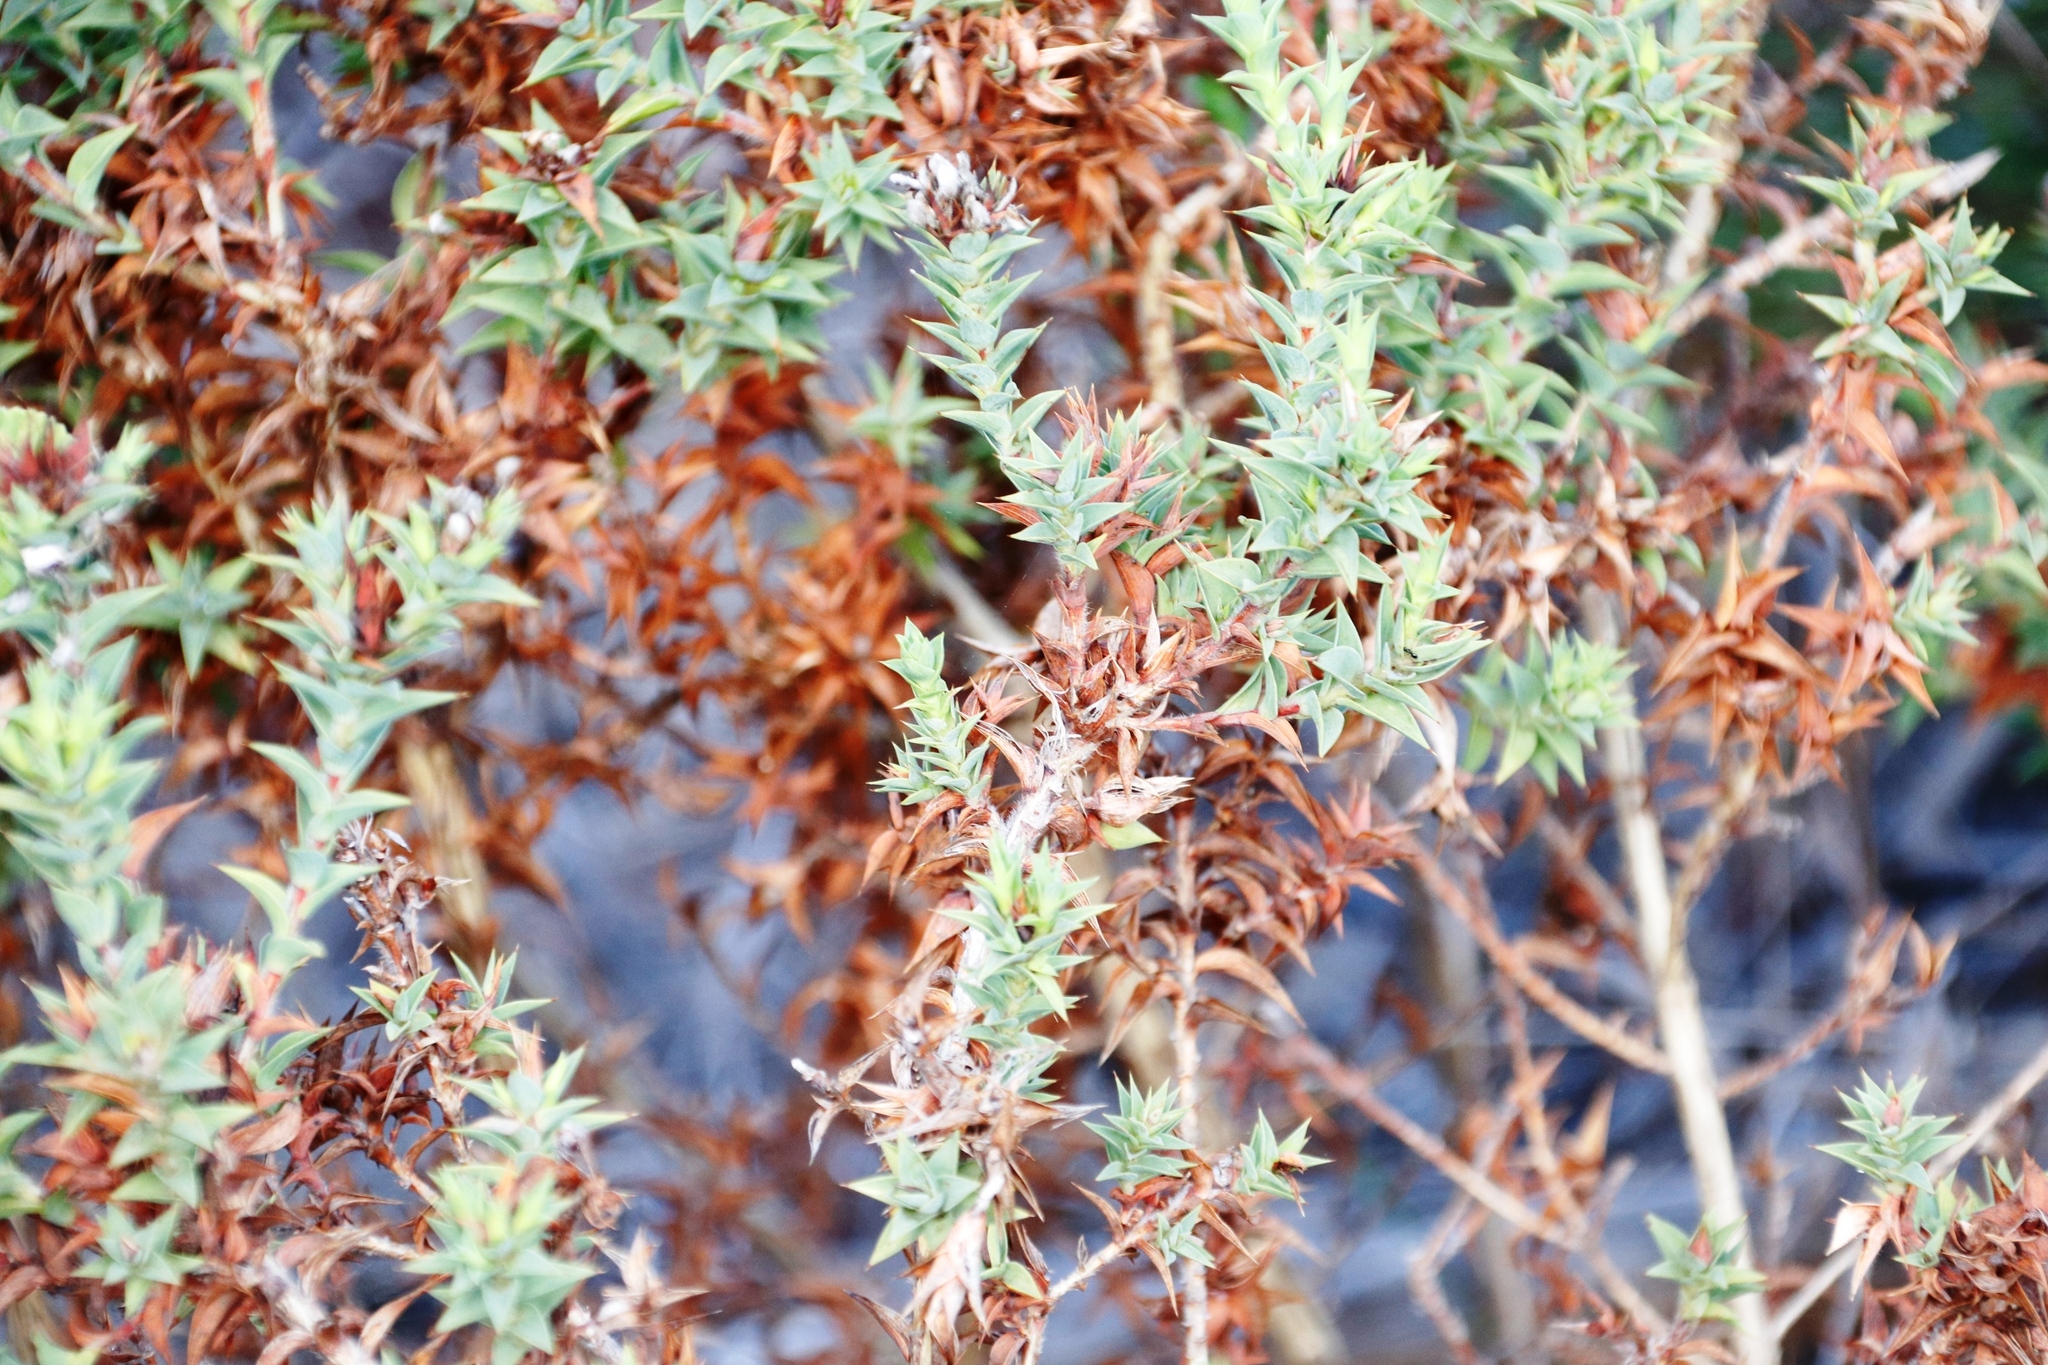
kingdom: Plantae
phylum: Tracheophyta
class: Magnoliopsida
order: Fabales
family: Fabaceae
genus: Aspalathus
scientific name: Aspalathus cordata
